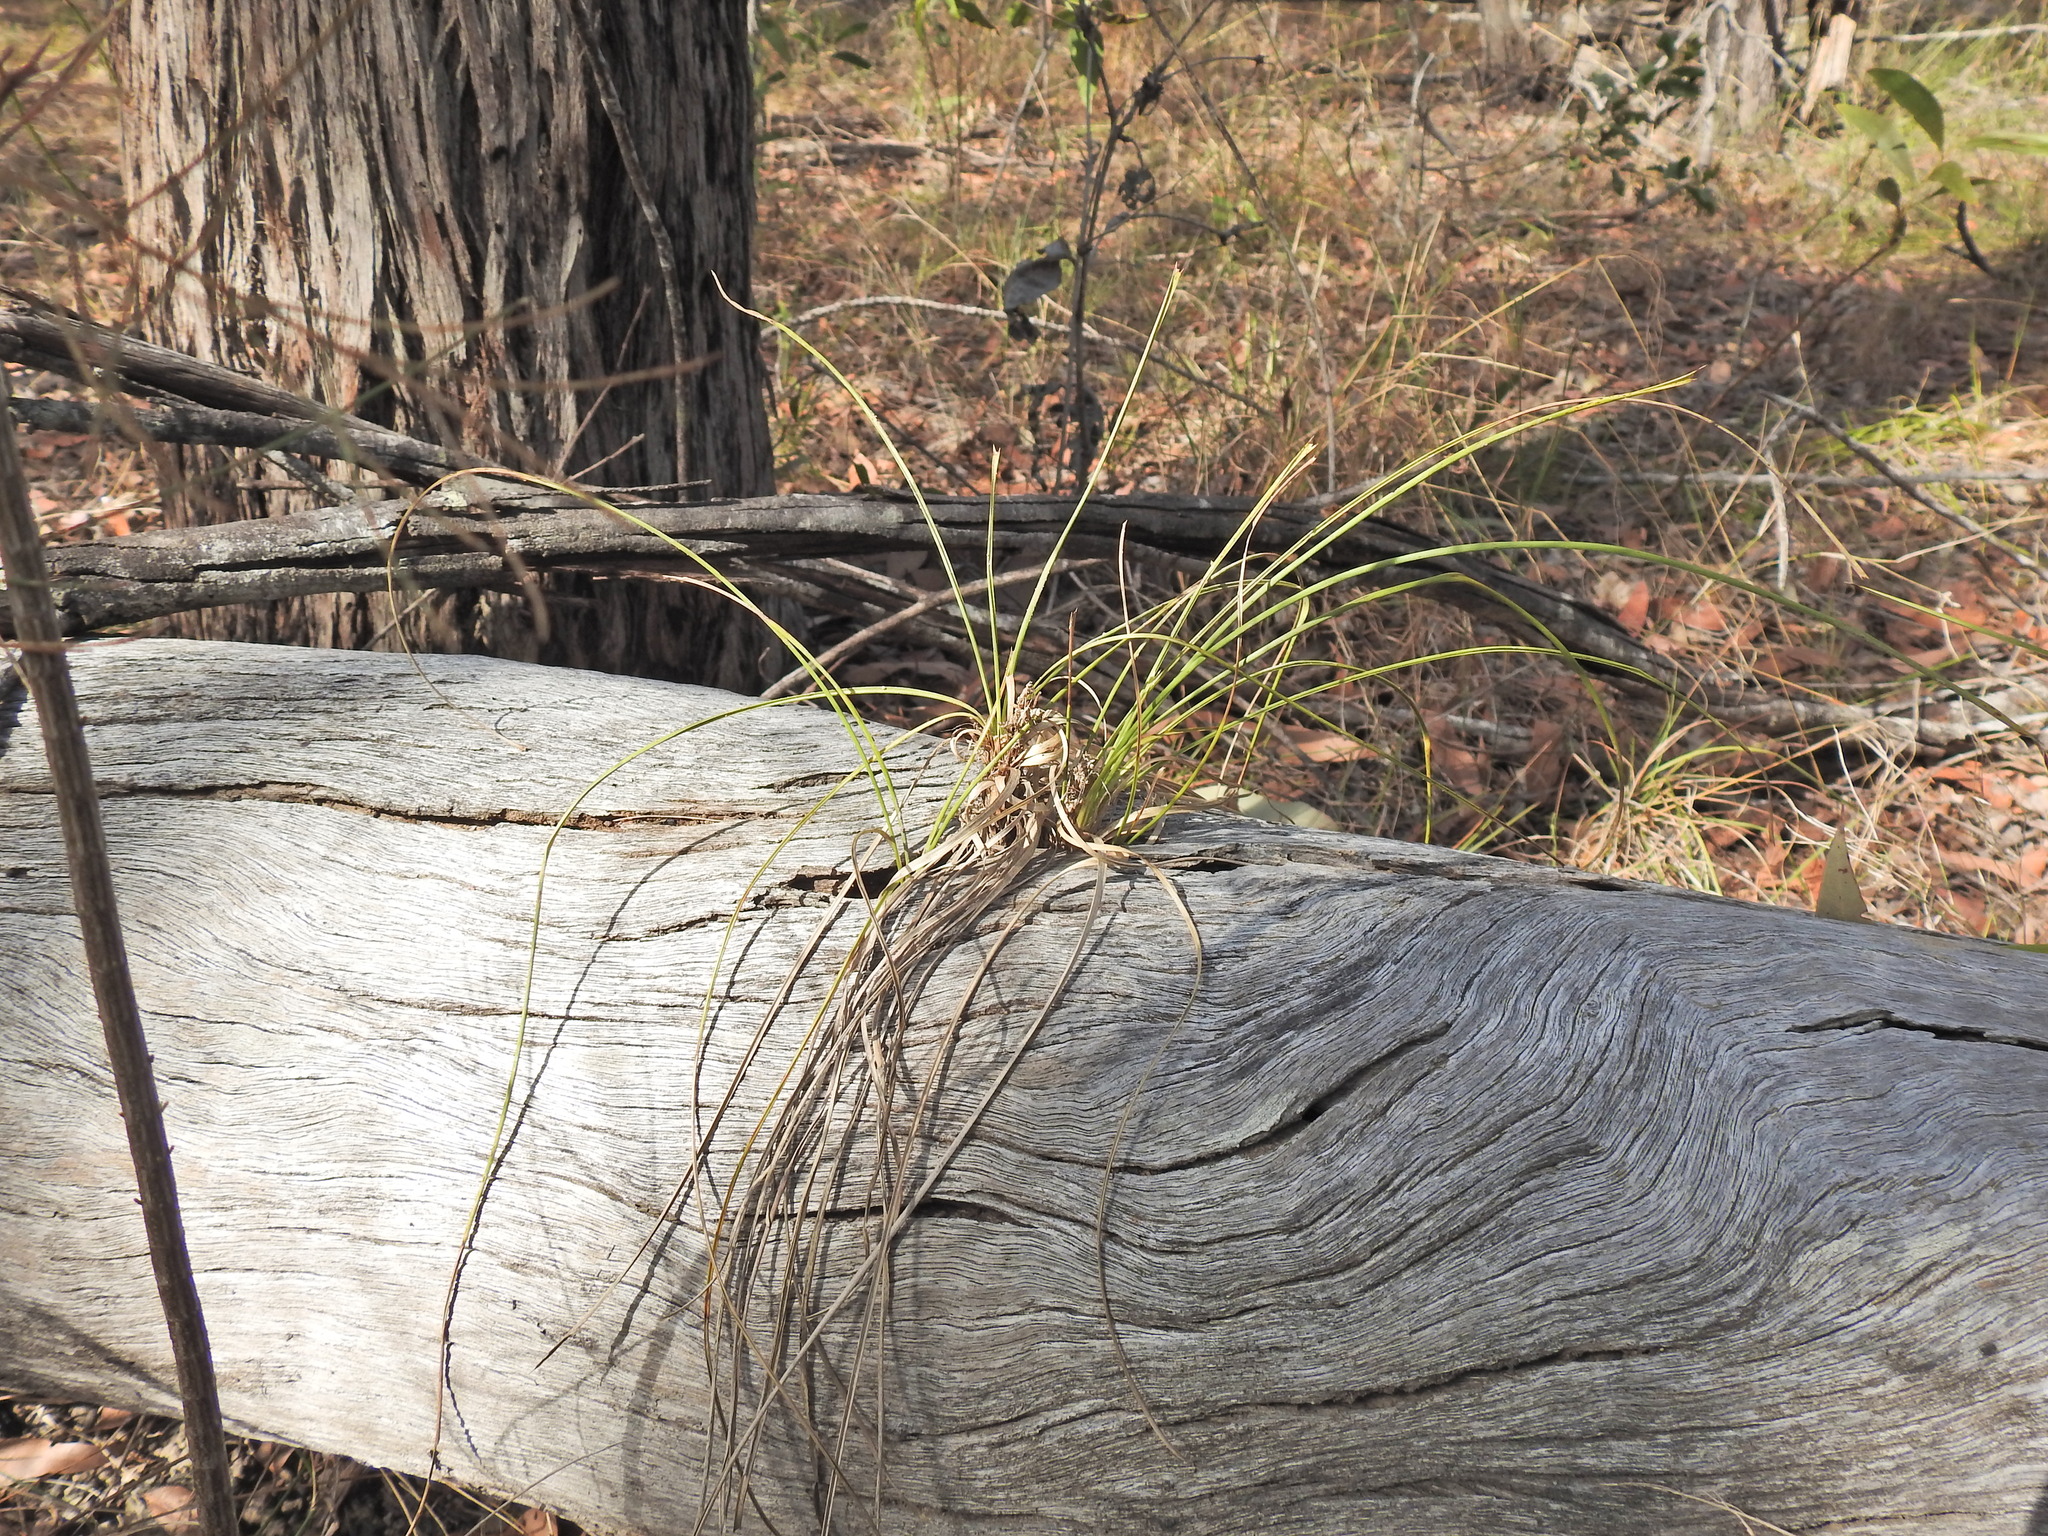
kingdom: Plantae
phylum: Tracheophyta
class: Liliopsida
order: Asparagales
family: Asparagaceae
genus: Lomandra
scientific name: Lomandra confertifolia
